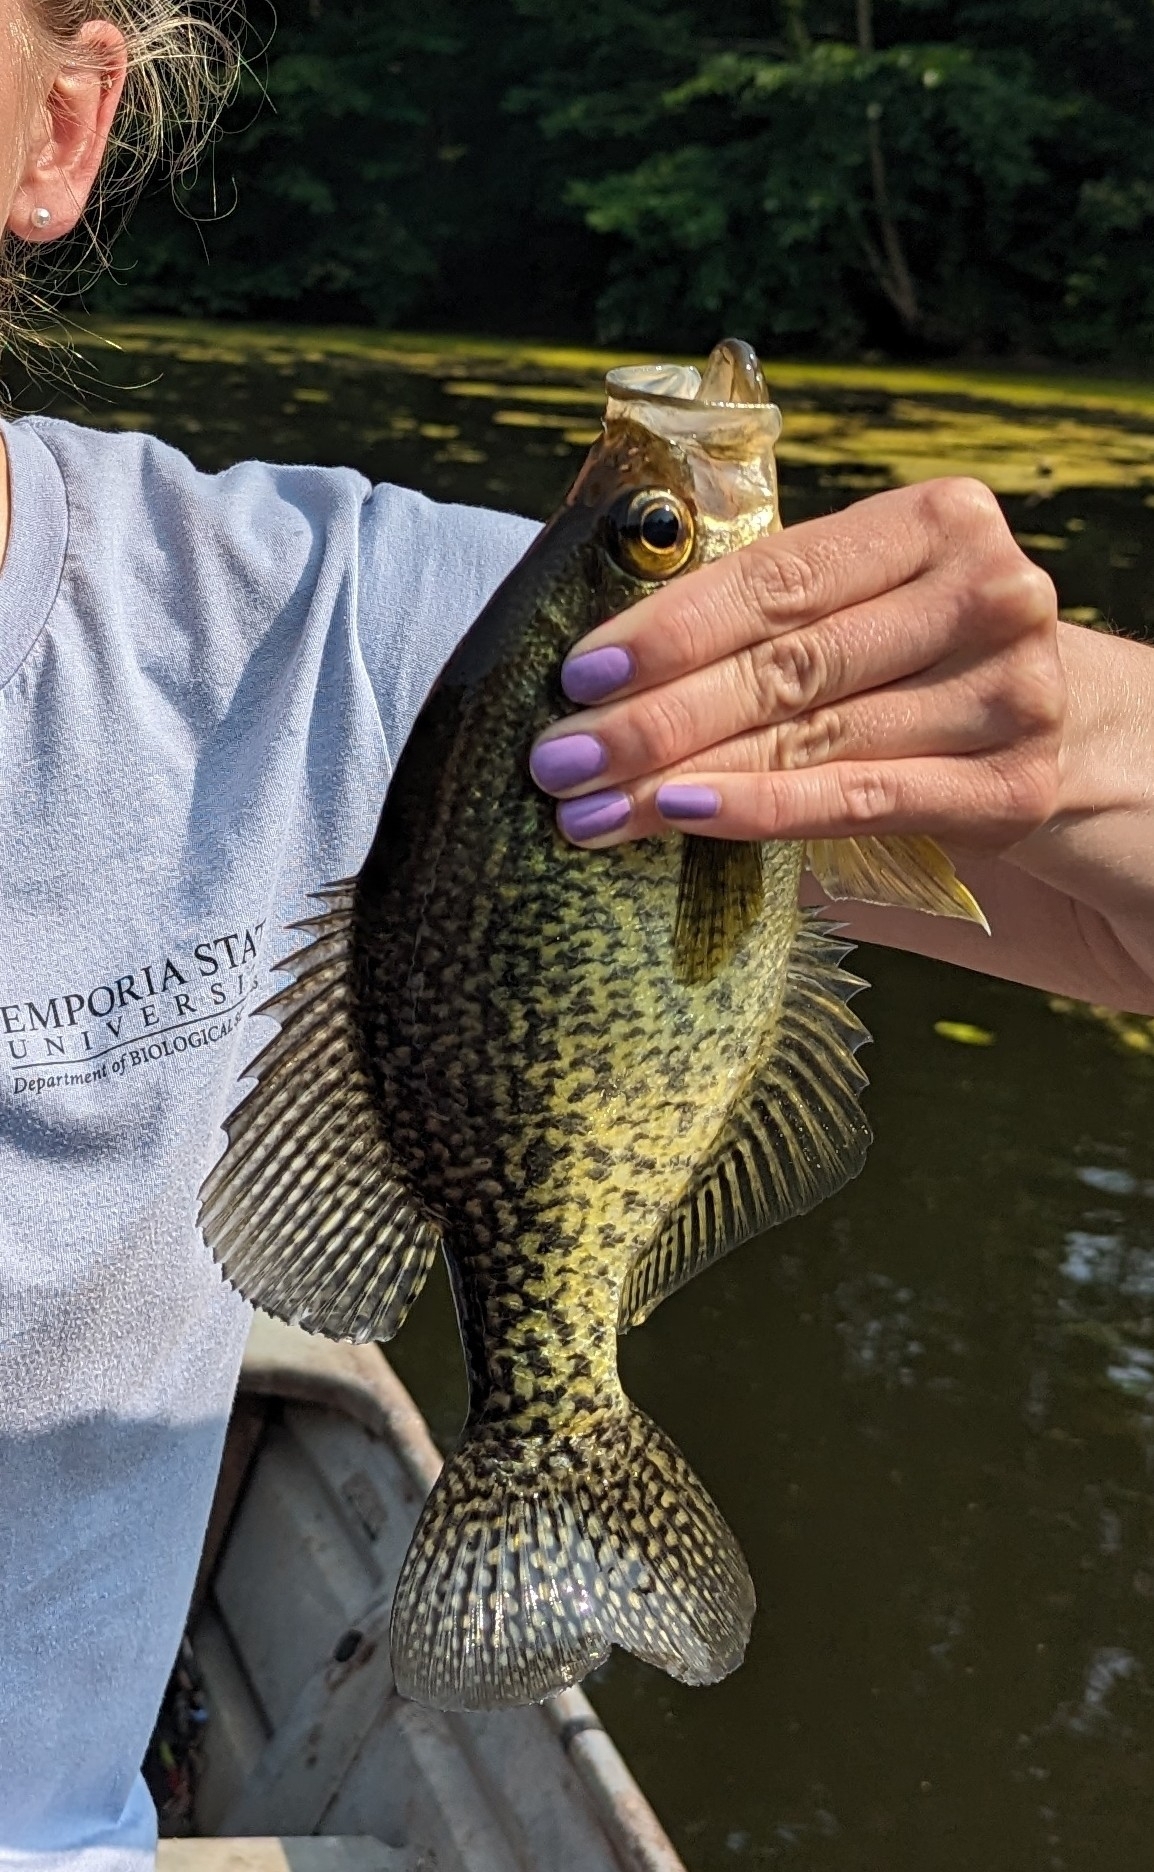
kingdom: Animalia
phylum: Chordata
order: Perciformes
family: Centrarchidae
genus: Pomoxis
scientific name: Pomoxis nigromaculatus
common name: Black crappie
